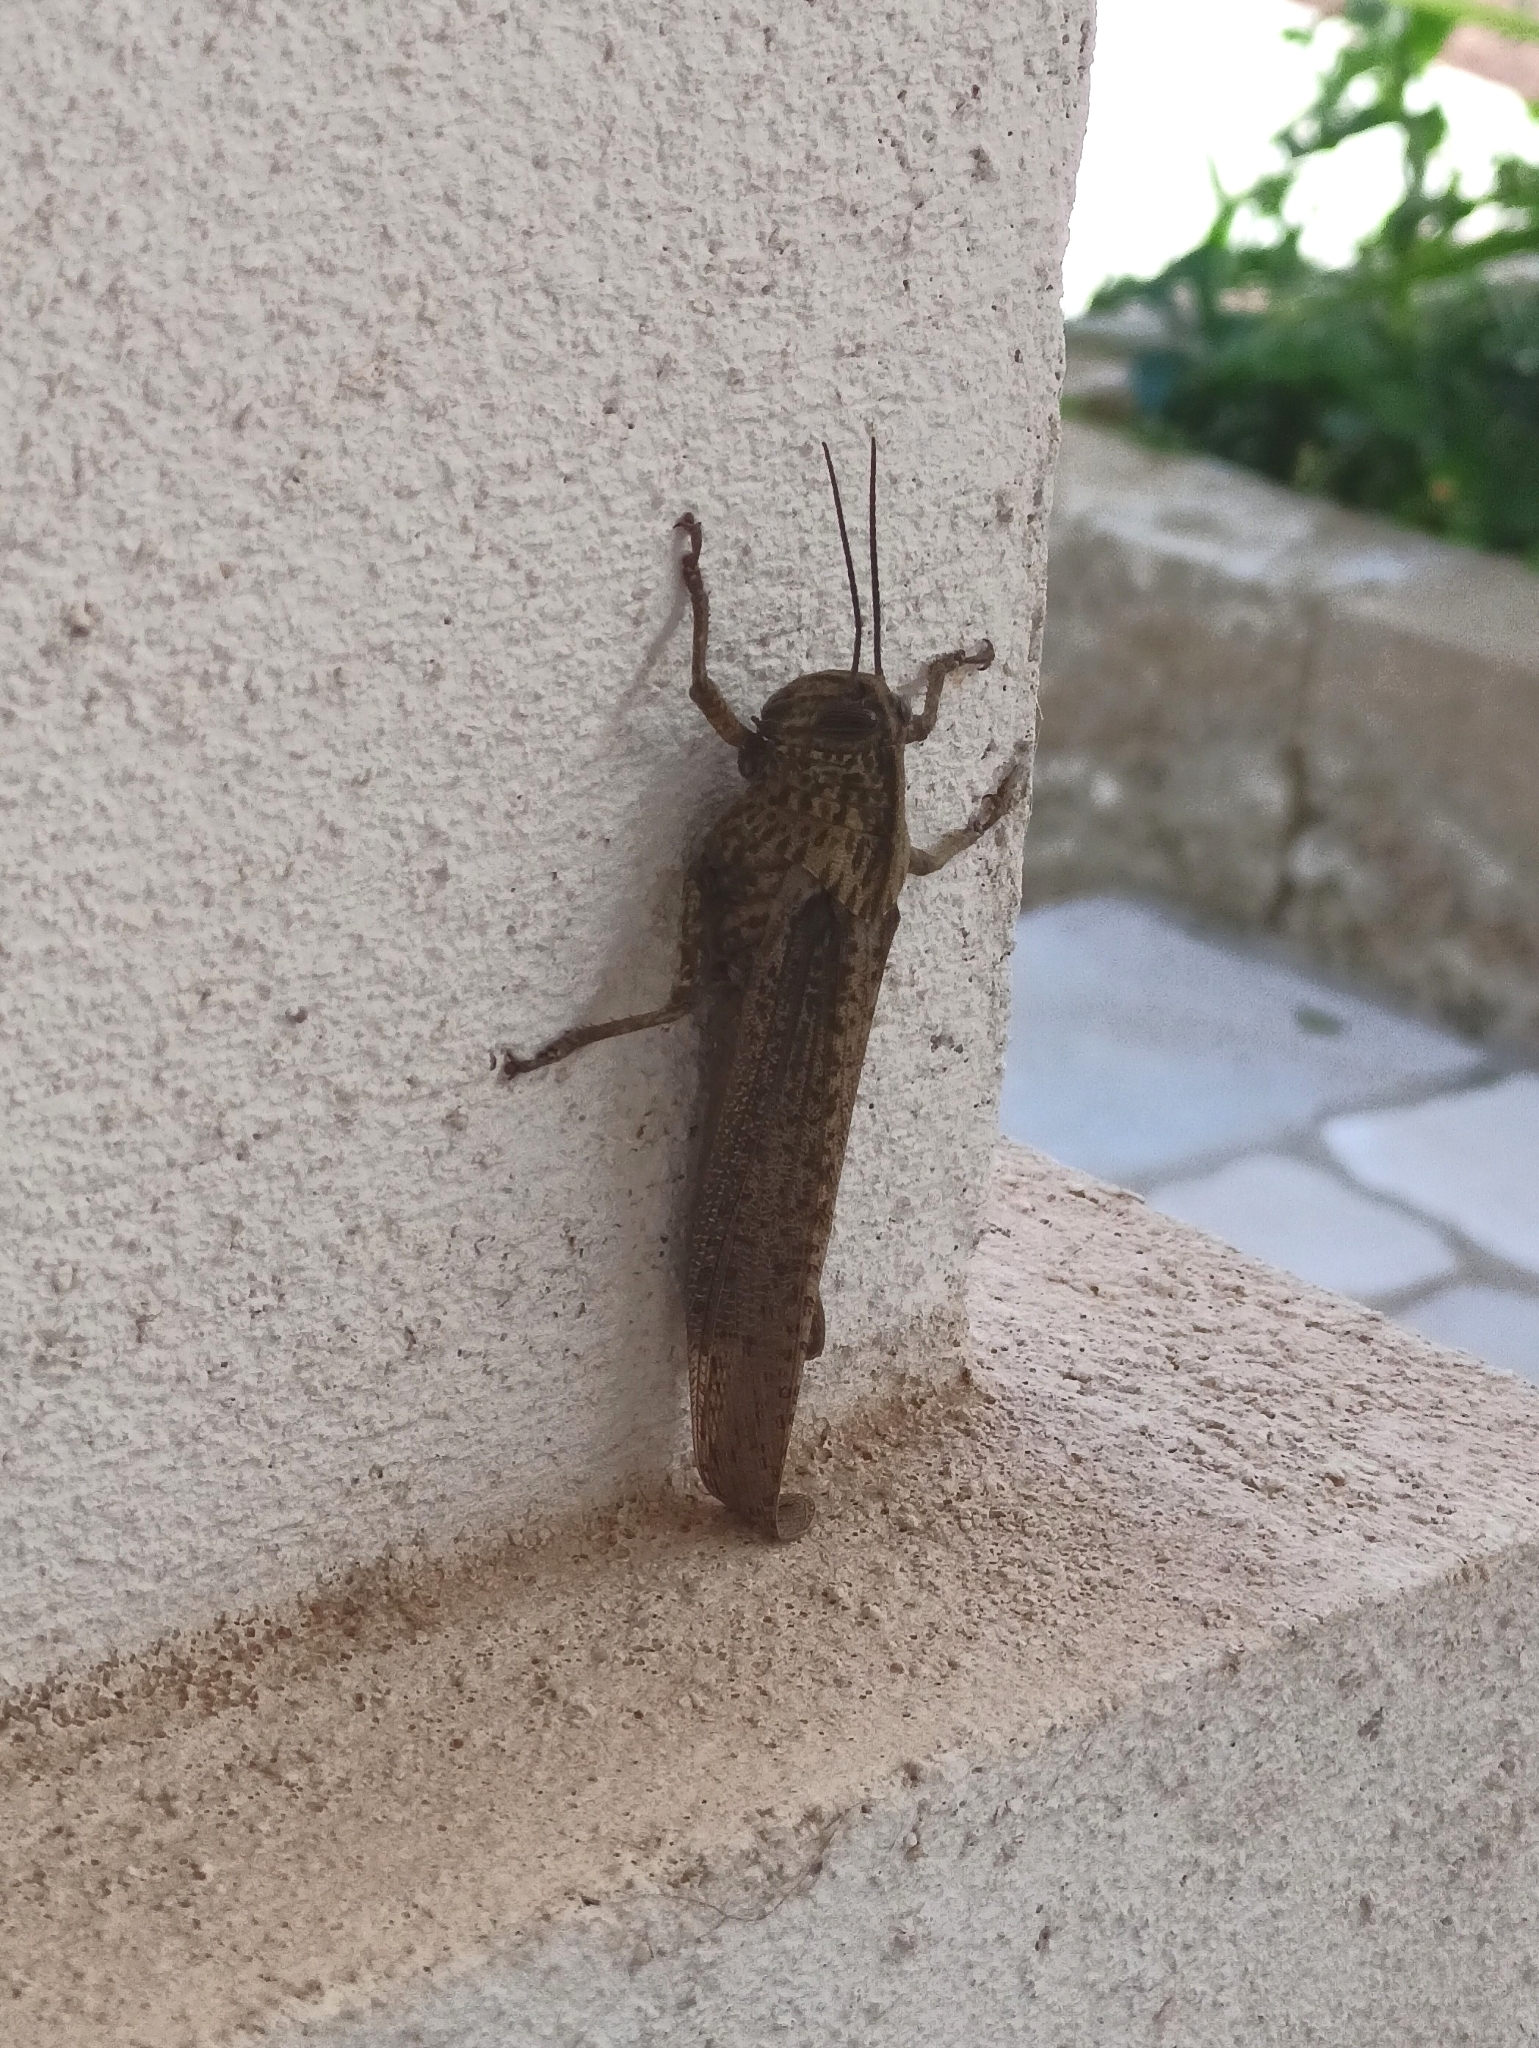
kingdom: Animalia
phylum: Arthropoda
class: Insecta
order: Orthoptera
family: Acrididae
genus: Anacridium
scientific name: Anacridium aegyptium
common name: Egyptian grasshopper
